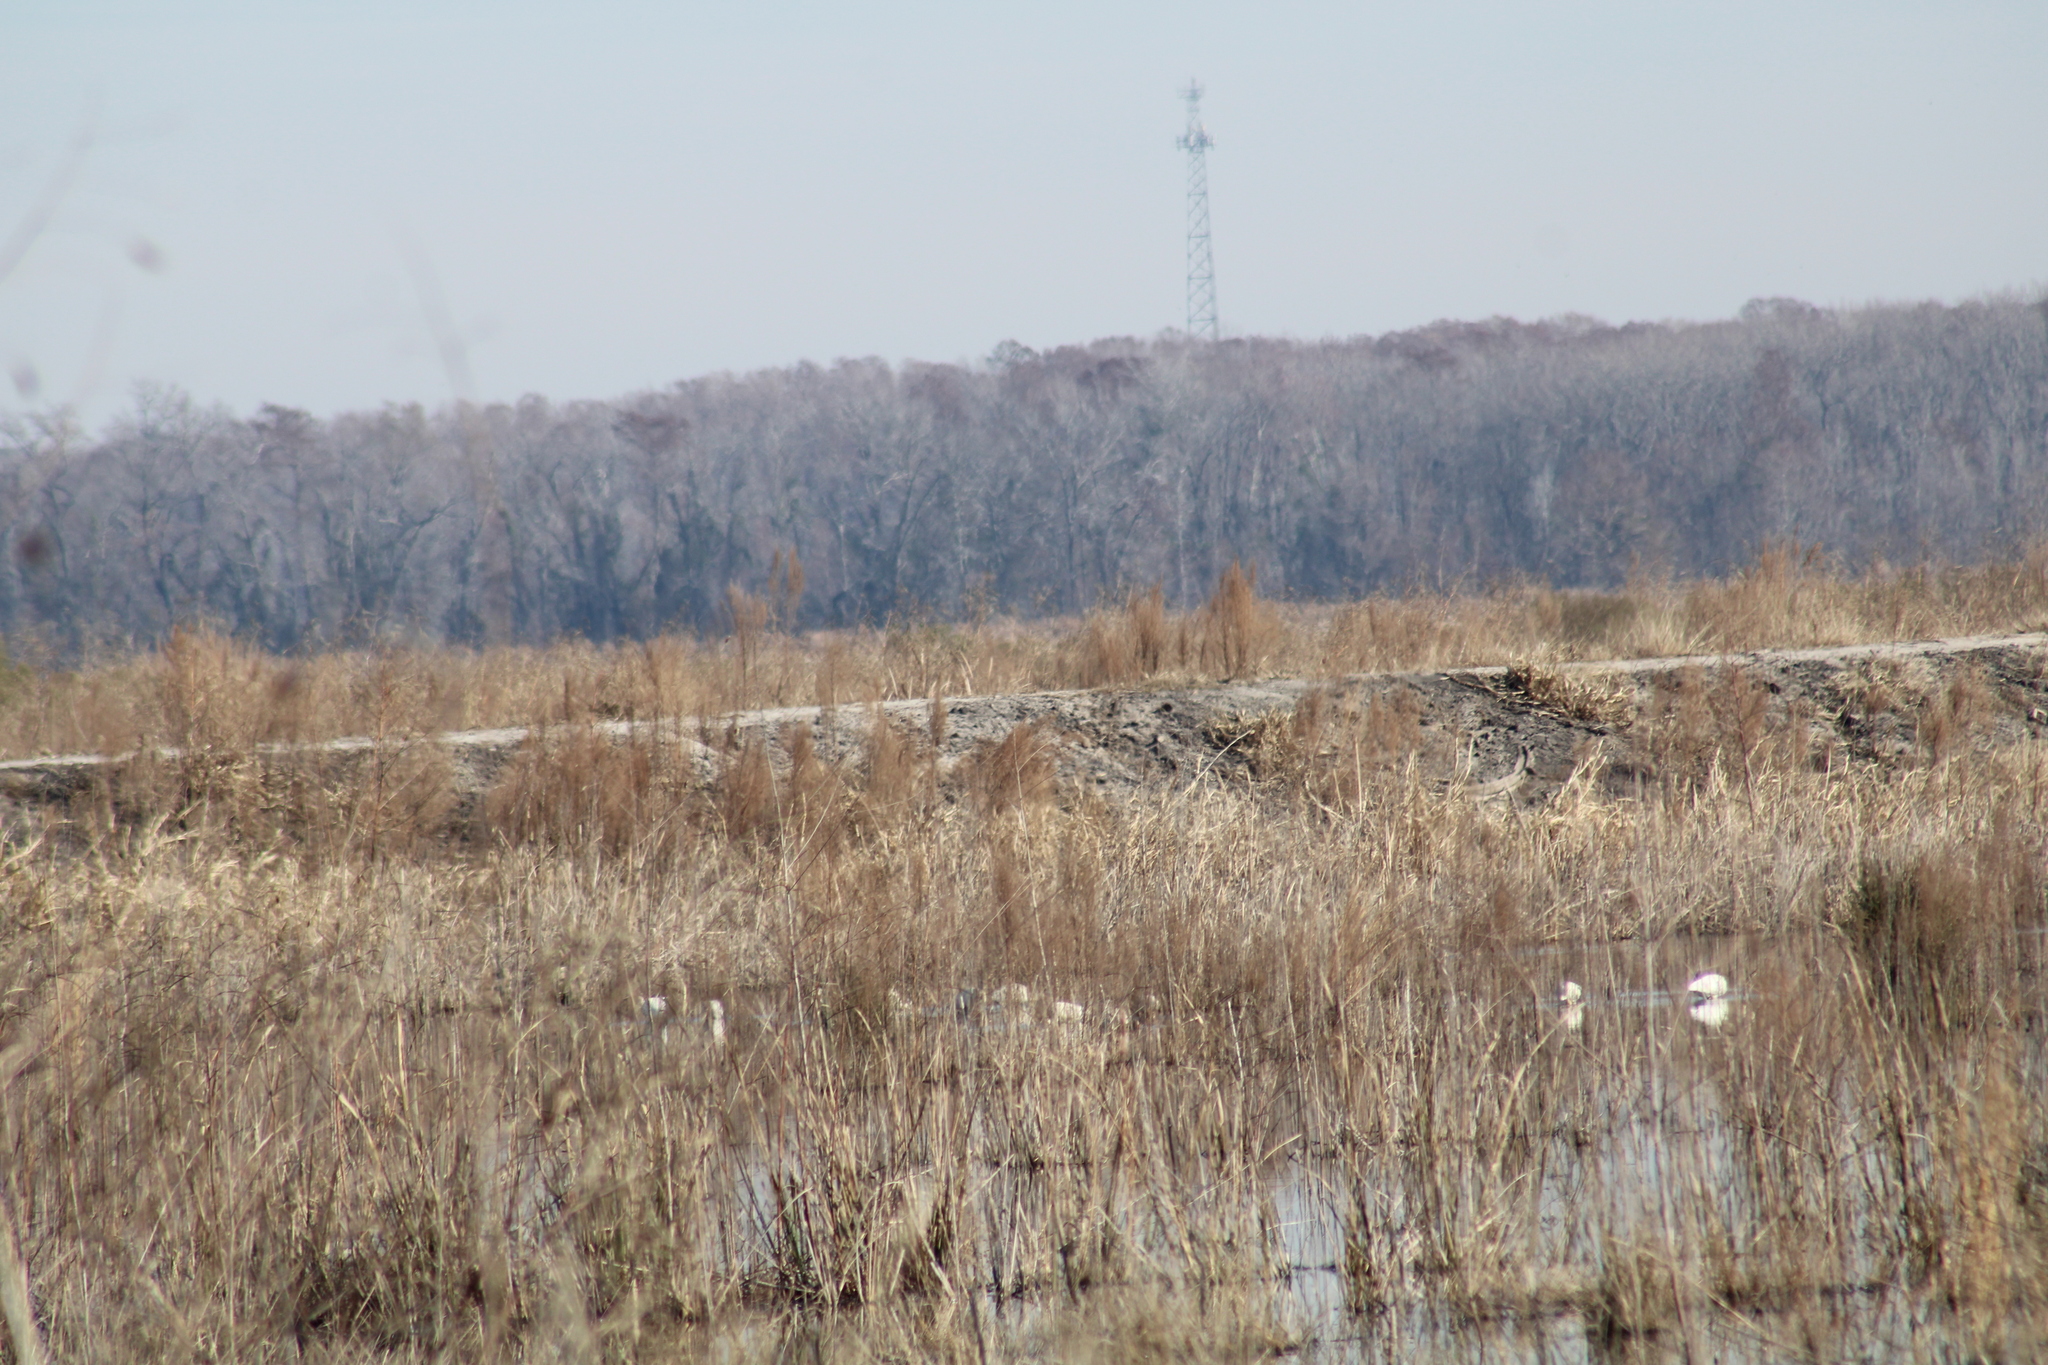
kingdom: Animalia
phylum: Chordata
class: Aves
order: Pelecaniformes
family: Threskiornithidae
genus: Eudocimus
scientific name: Eudocimus albus
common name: White ibis
